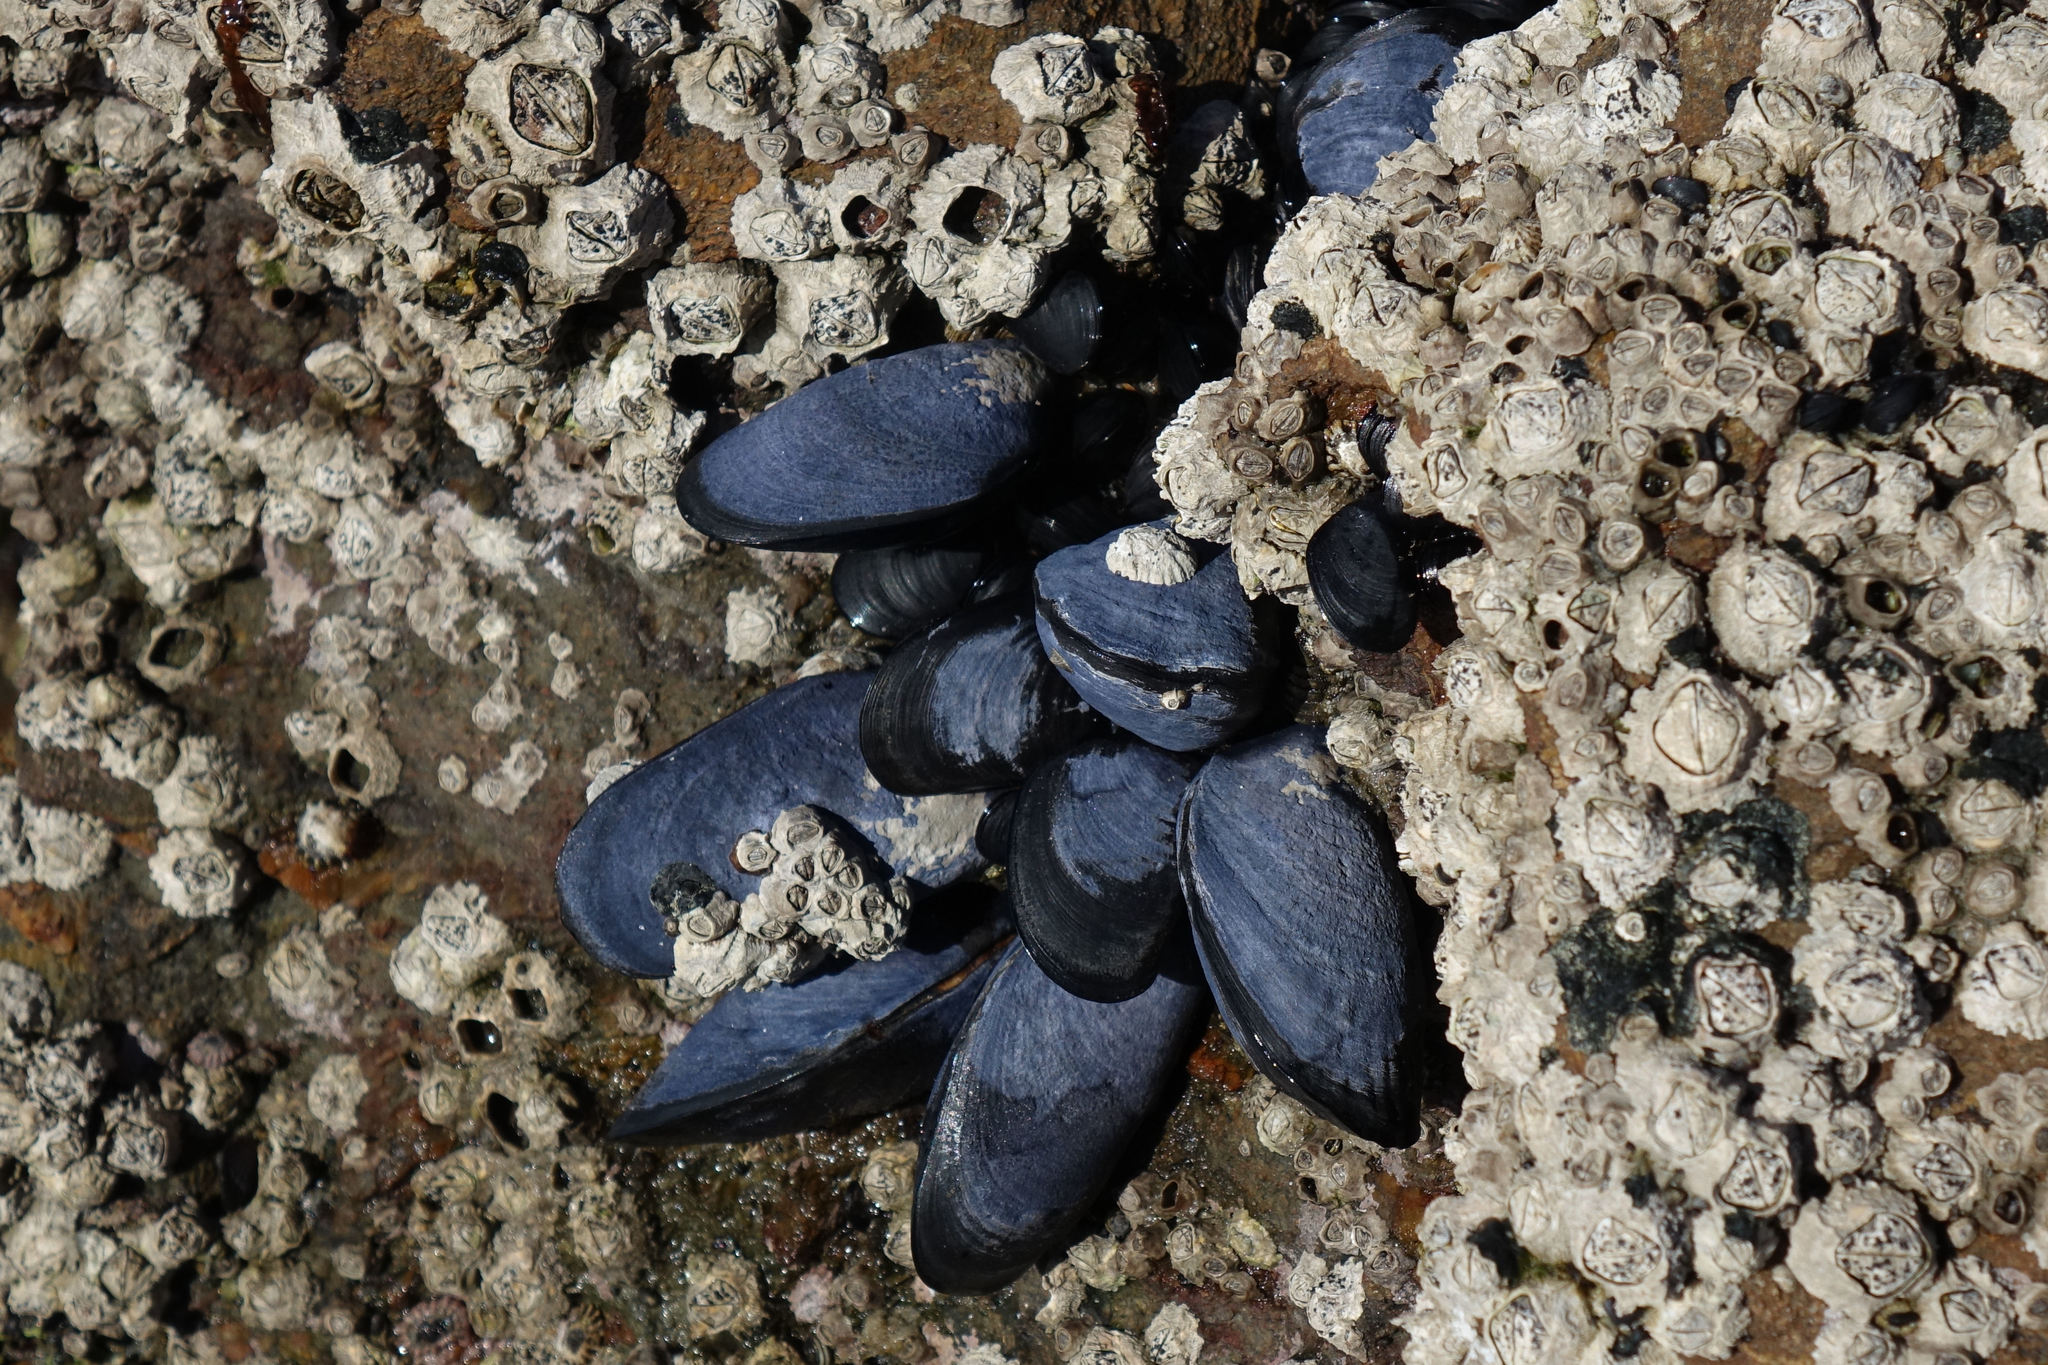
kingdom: Animalia
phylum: Mollusca
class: Bivalvia
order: Mytilida
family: Mytilidae
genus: Mytilus
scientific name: Mytilus planulatus
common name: Australian mussel
